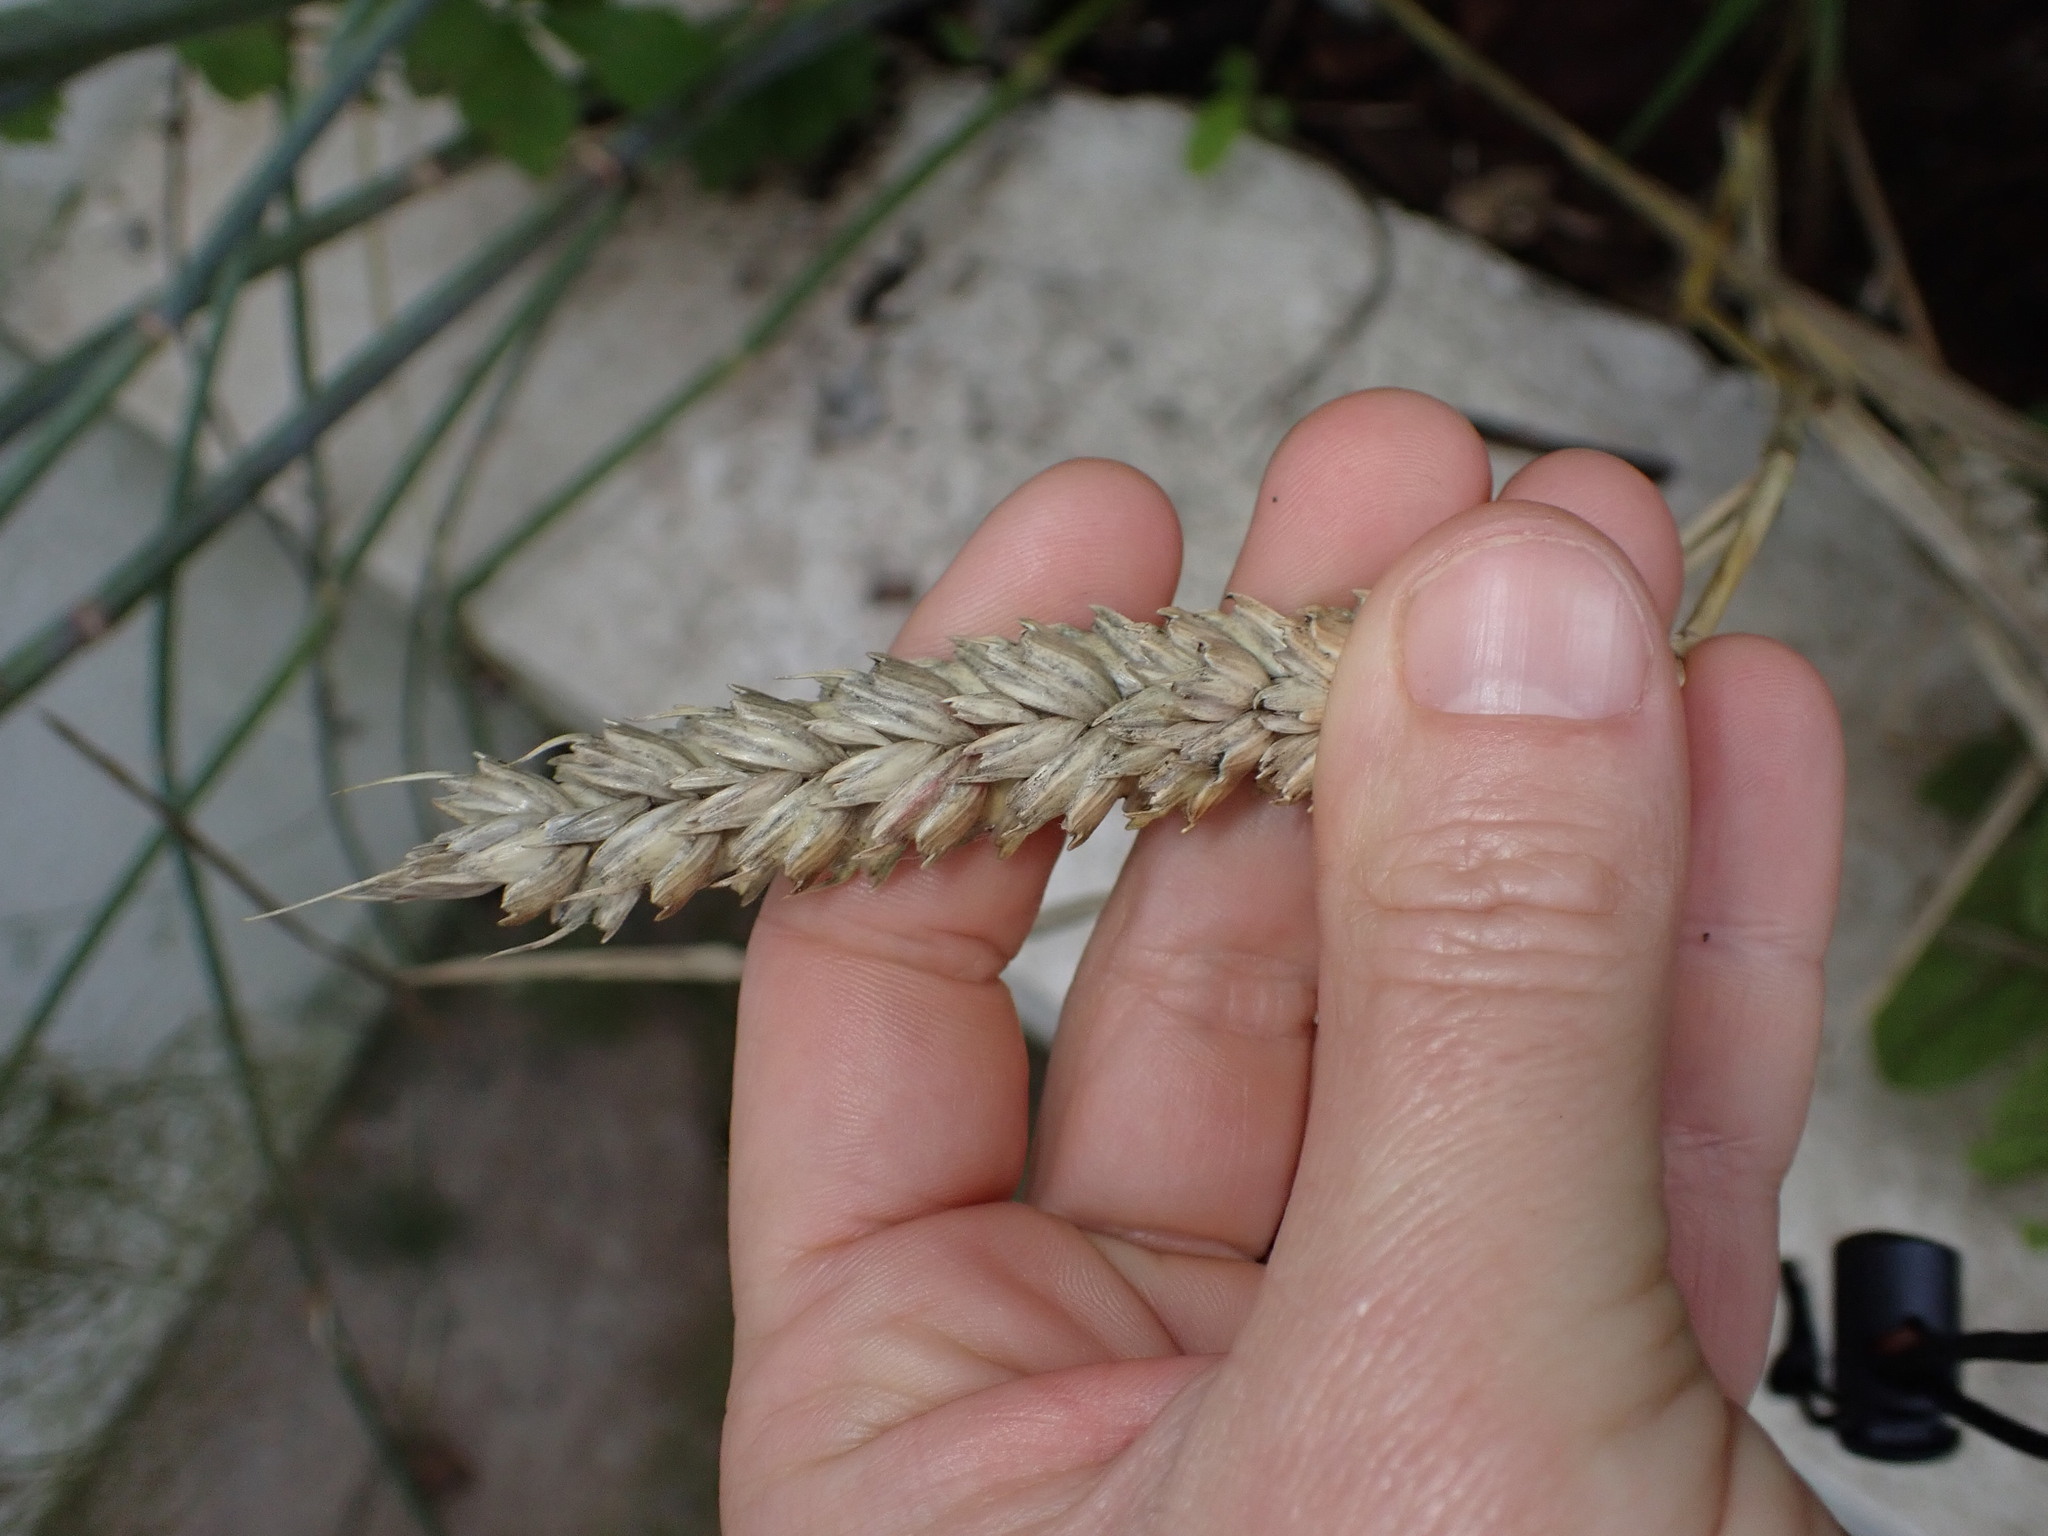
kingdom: Plantae
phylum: Tracheophyta
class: Liliopsida
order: Poales
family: Poaceae
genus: Triticum
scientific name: Triticum aestivum
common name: Common wheat
